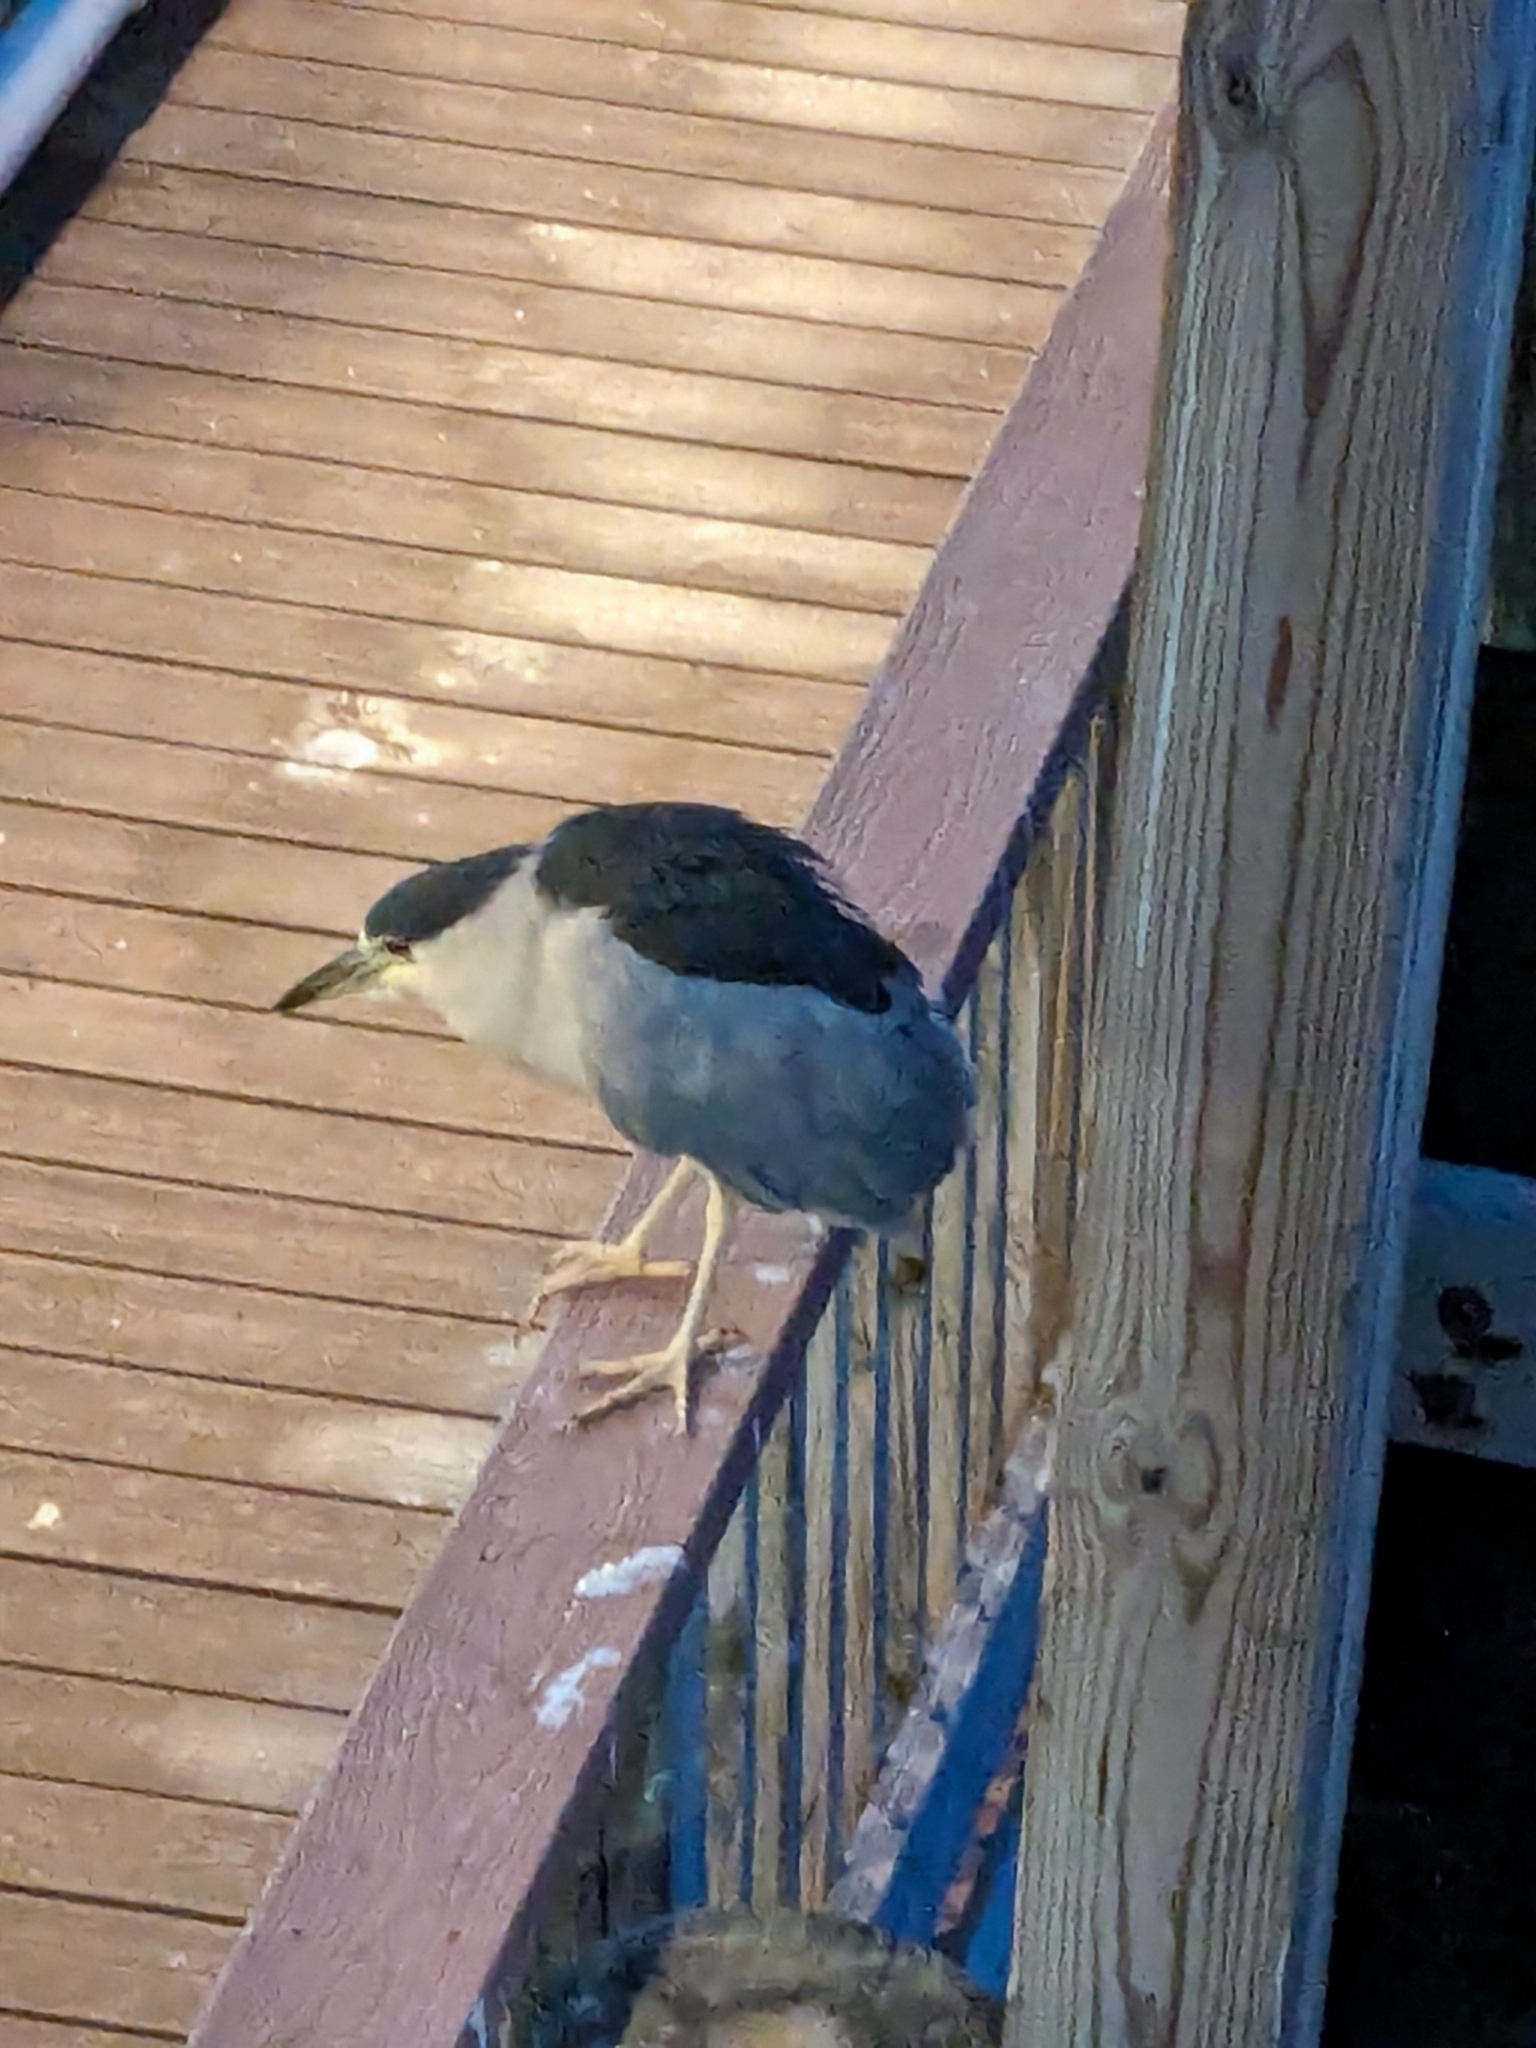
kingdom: Animalia
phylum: Chordata
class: Aves
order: Pelecaniformes
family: Ardeidae
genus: Nycticorax
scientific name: Nycticorax nycticorax
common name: Black-crowned night heron
